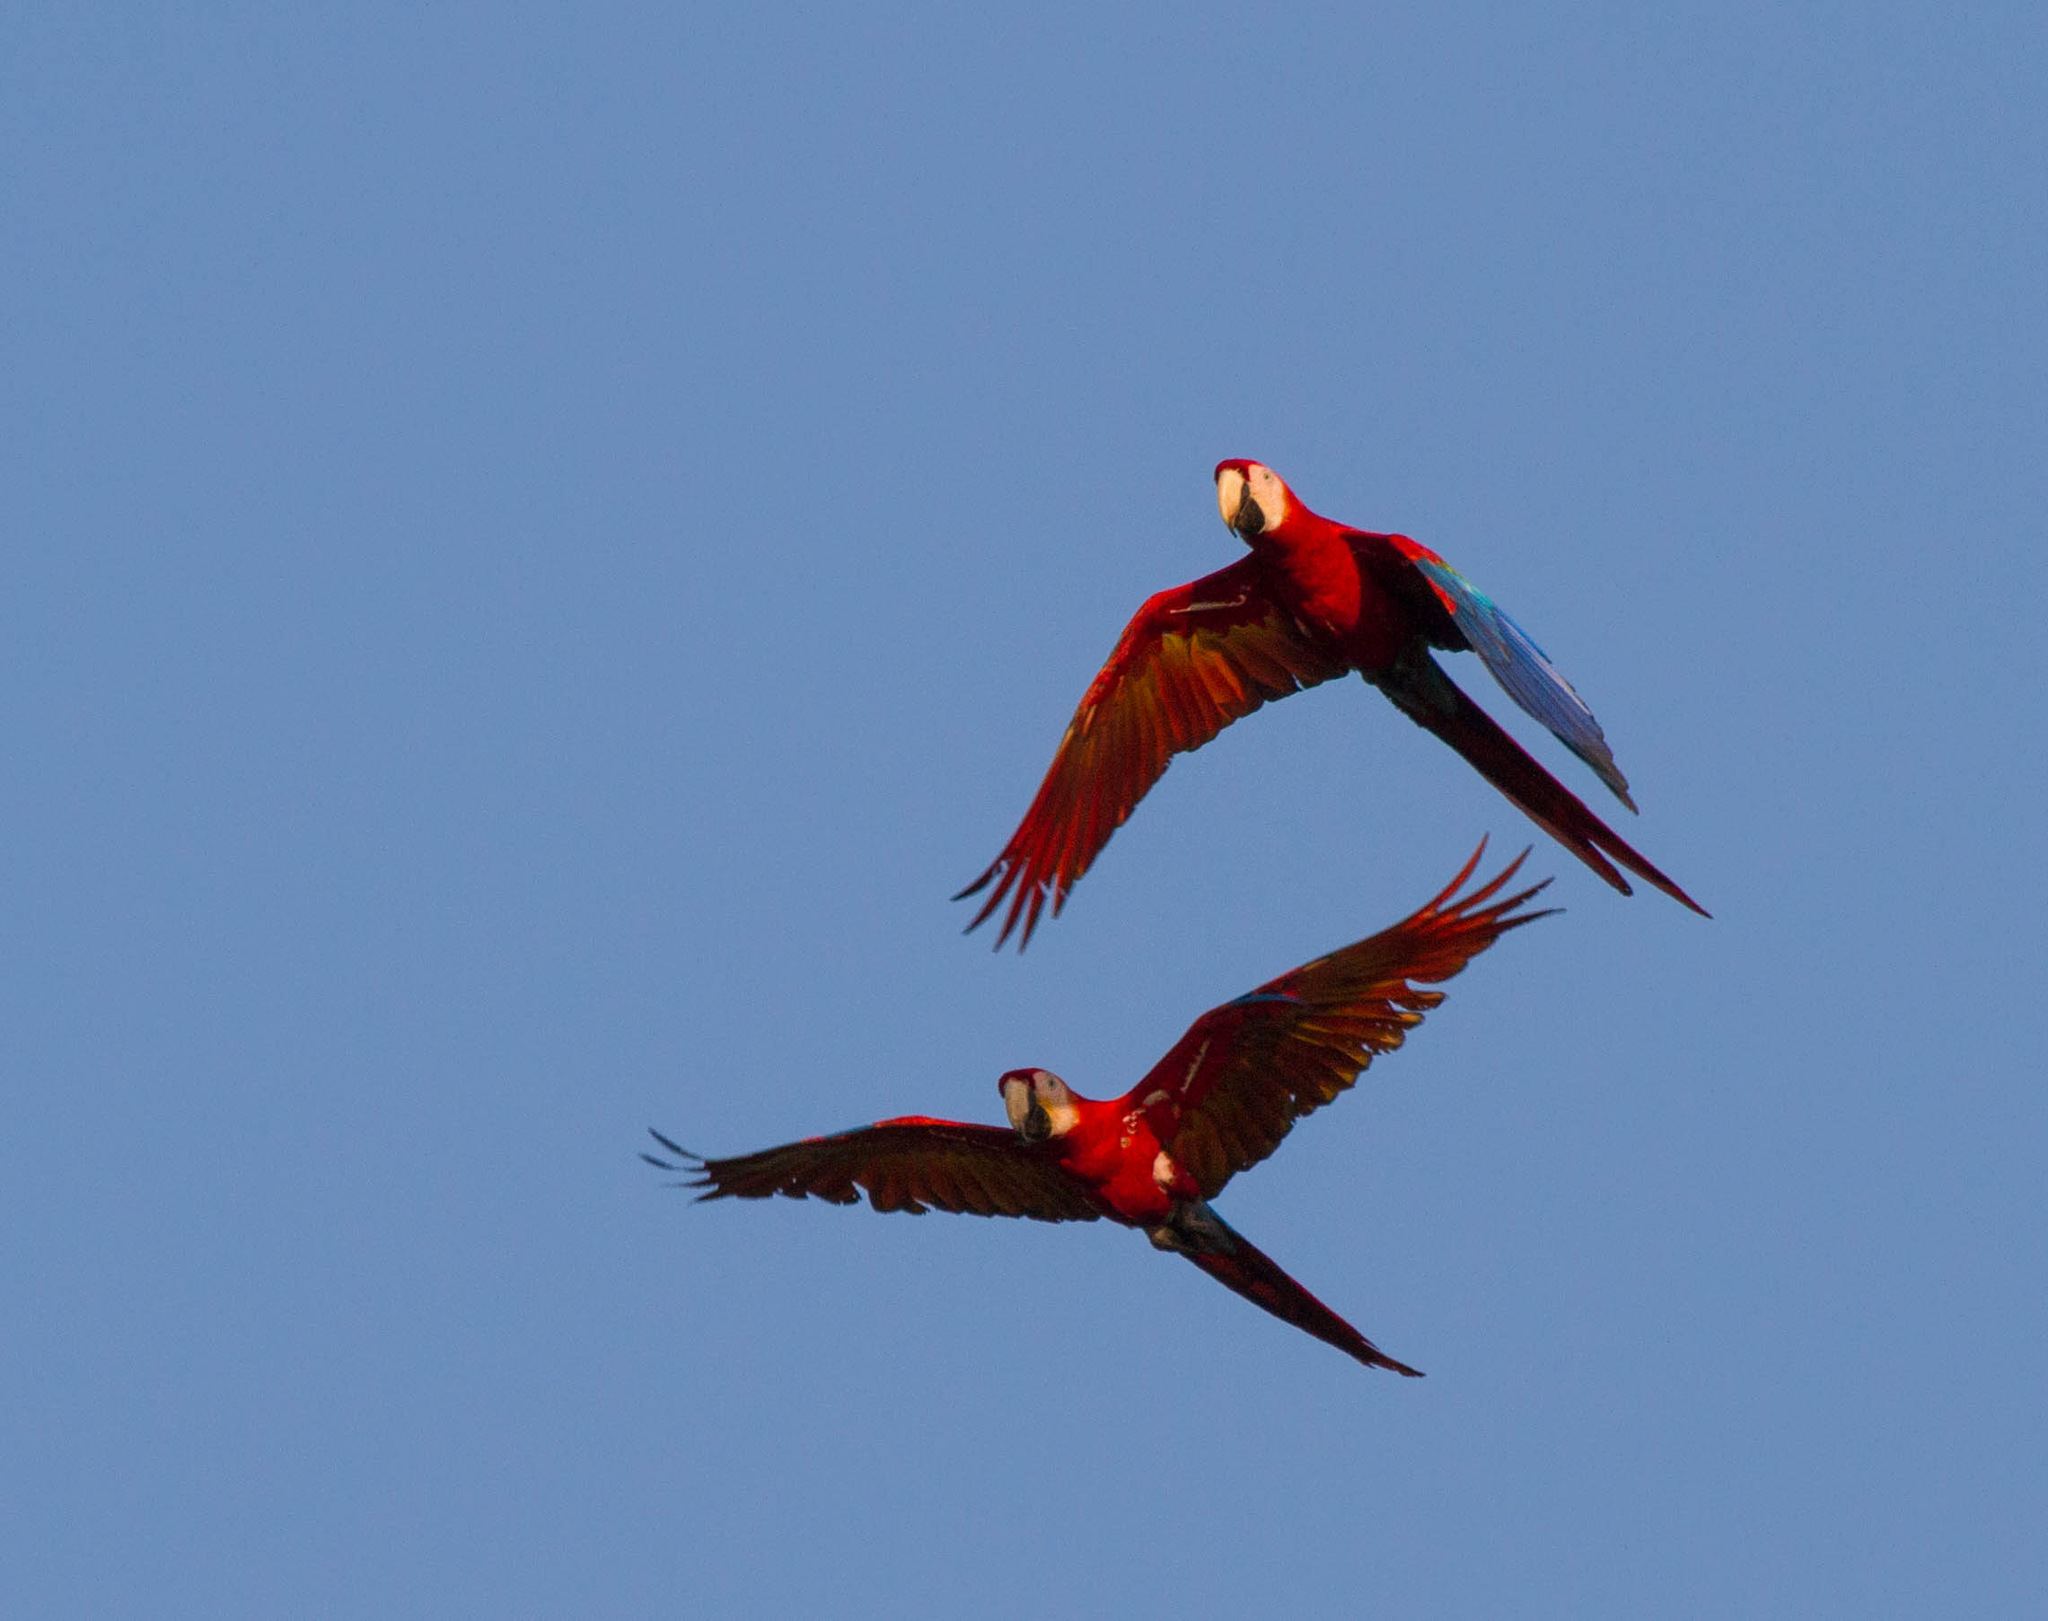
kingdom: Animalia
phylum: Chordata
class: Aves
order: Psittaciformes
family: Psittacidae
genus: Ara
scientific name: Ara macao
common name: Scarlet macaw
